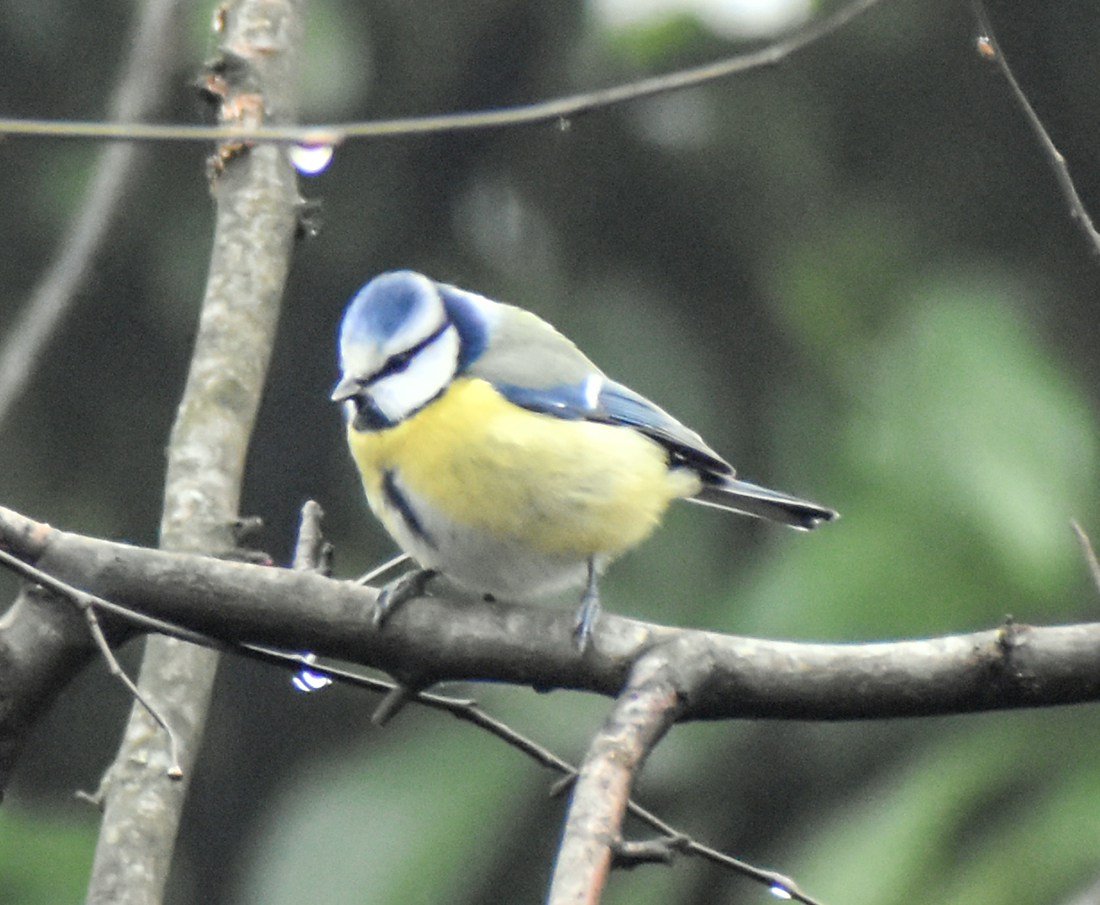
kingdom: Animalia
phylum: Chordata
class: Aves
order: Passeriformes
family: Paridae
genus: Cyanistes
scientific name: Cyanistes caeruleus
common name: Eurasian blue tit
